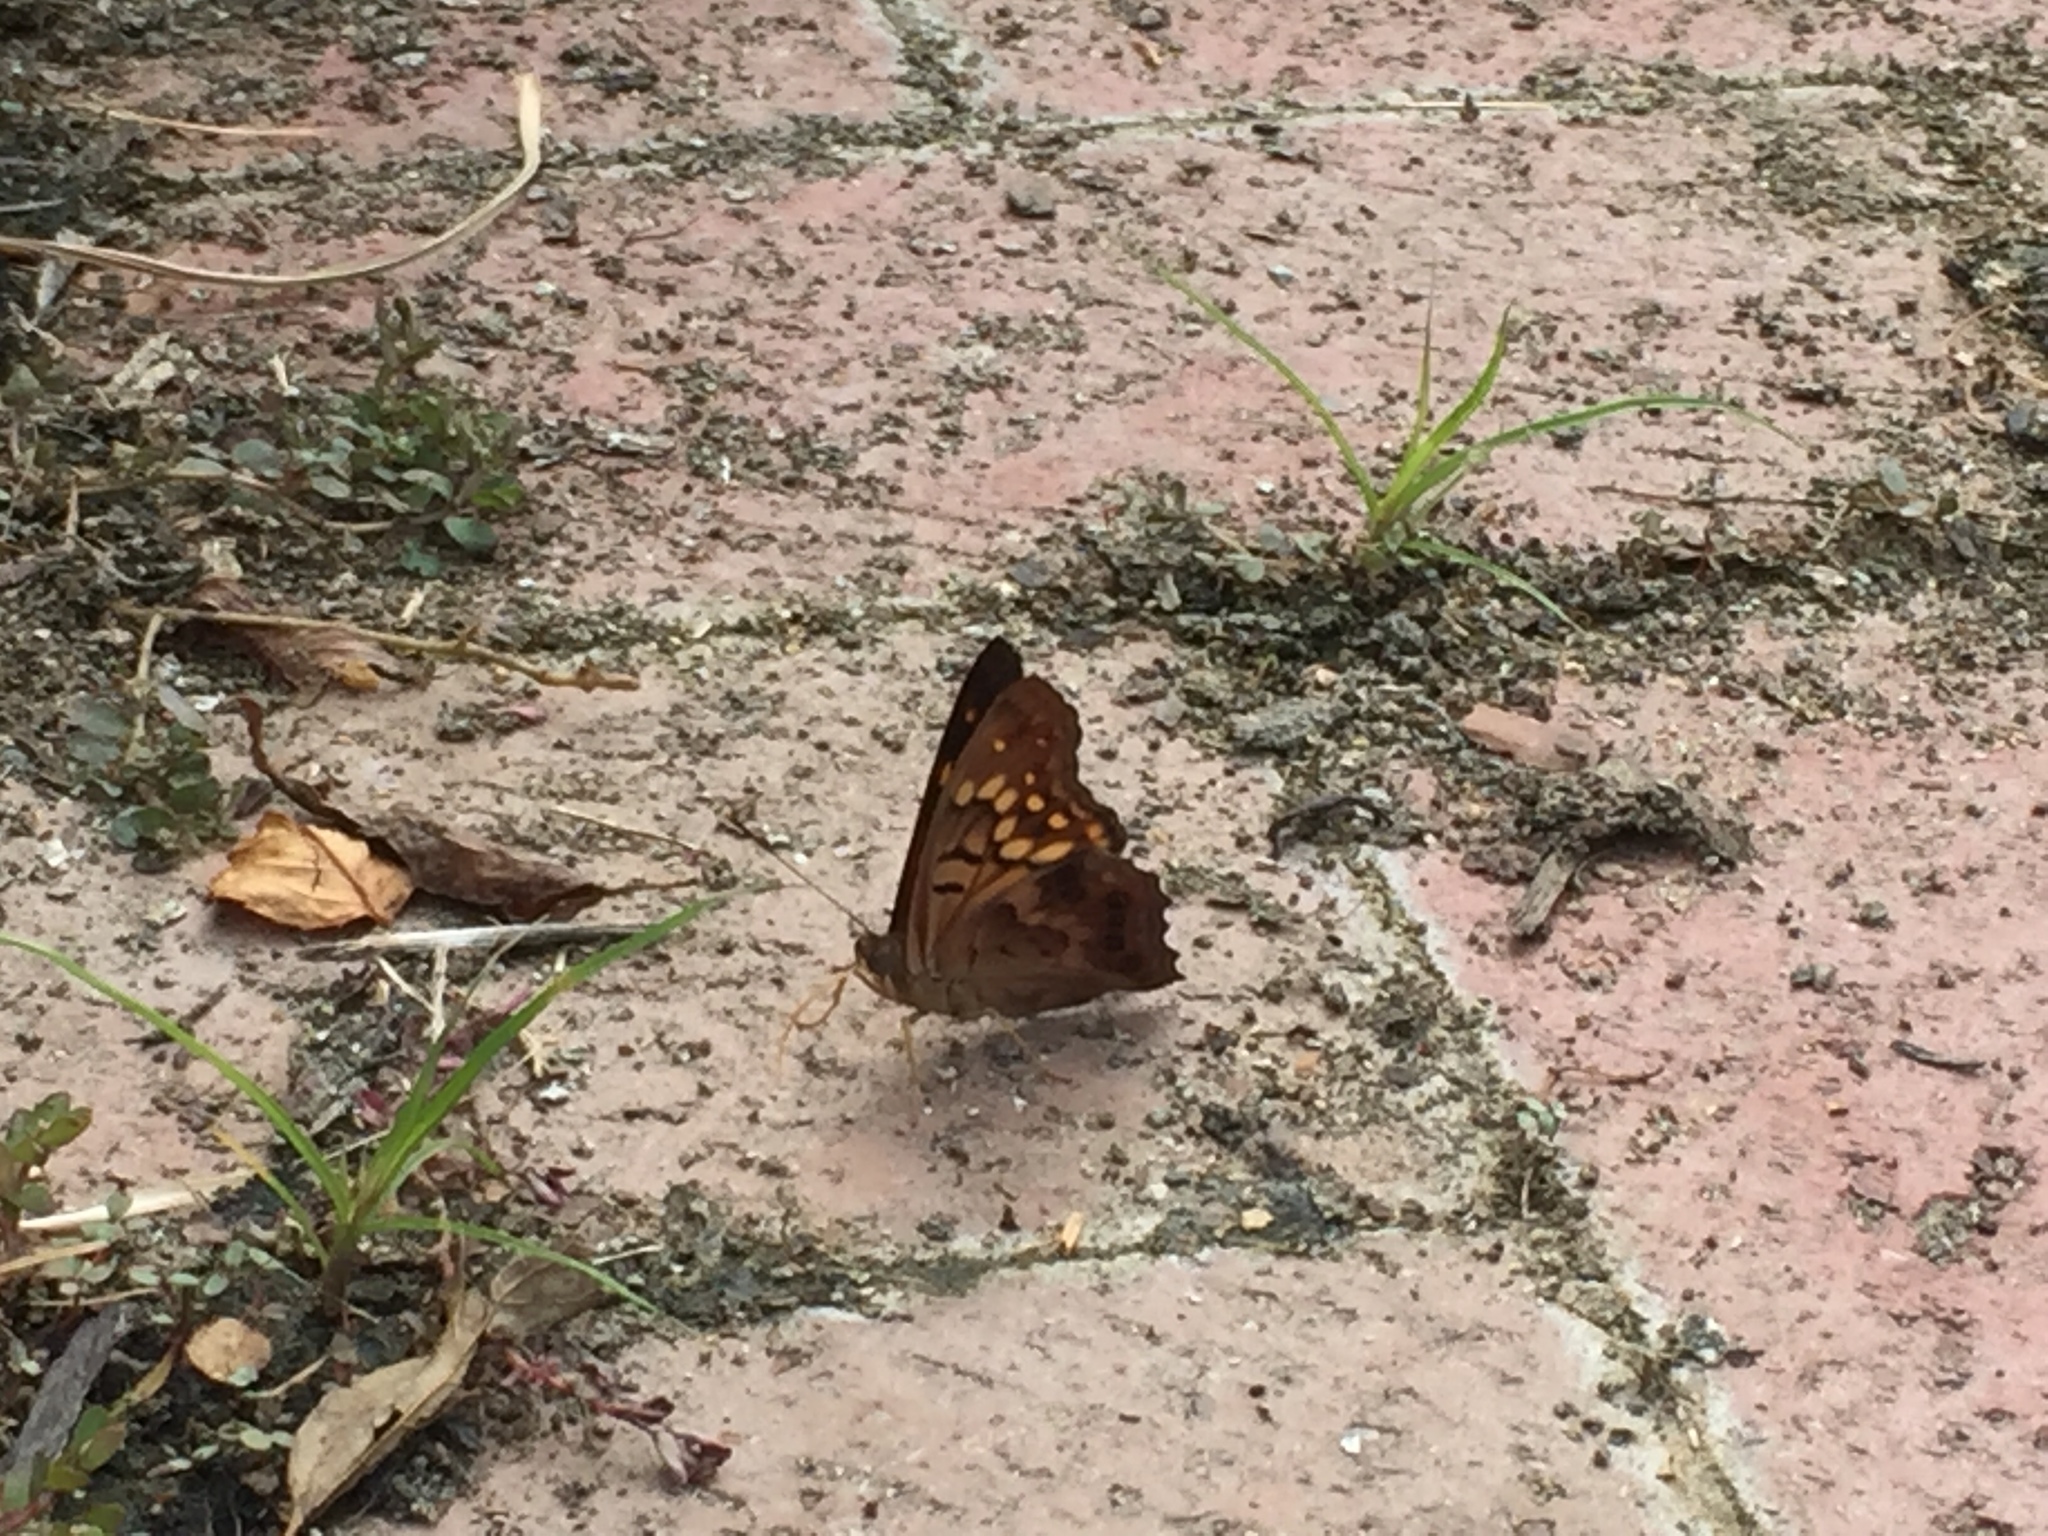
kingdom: Animalia
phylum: Arthropoda
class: Insecta
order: Lepidoptera
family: Nymphalidae
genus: Asterocampa
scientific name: Asterocampa clyton
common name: Tawny emperor
